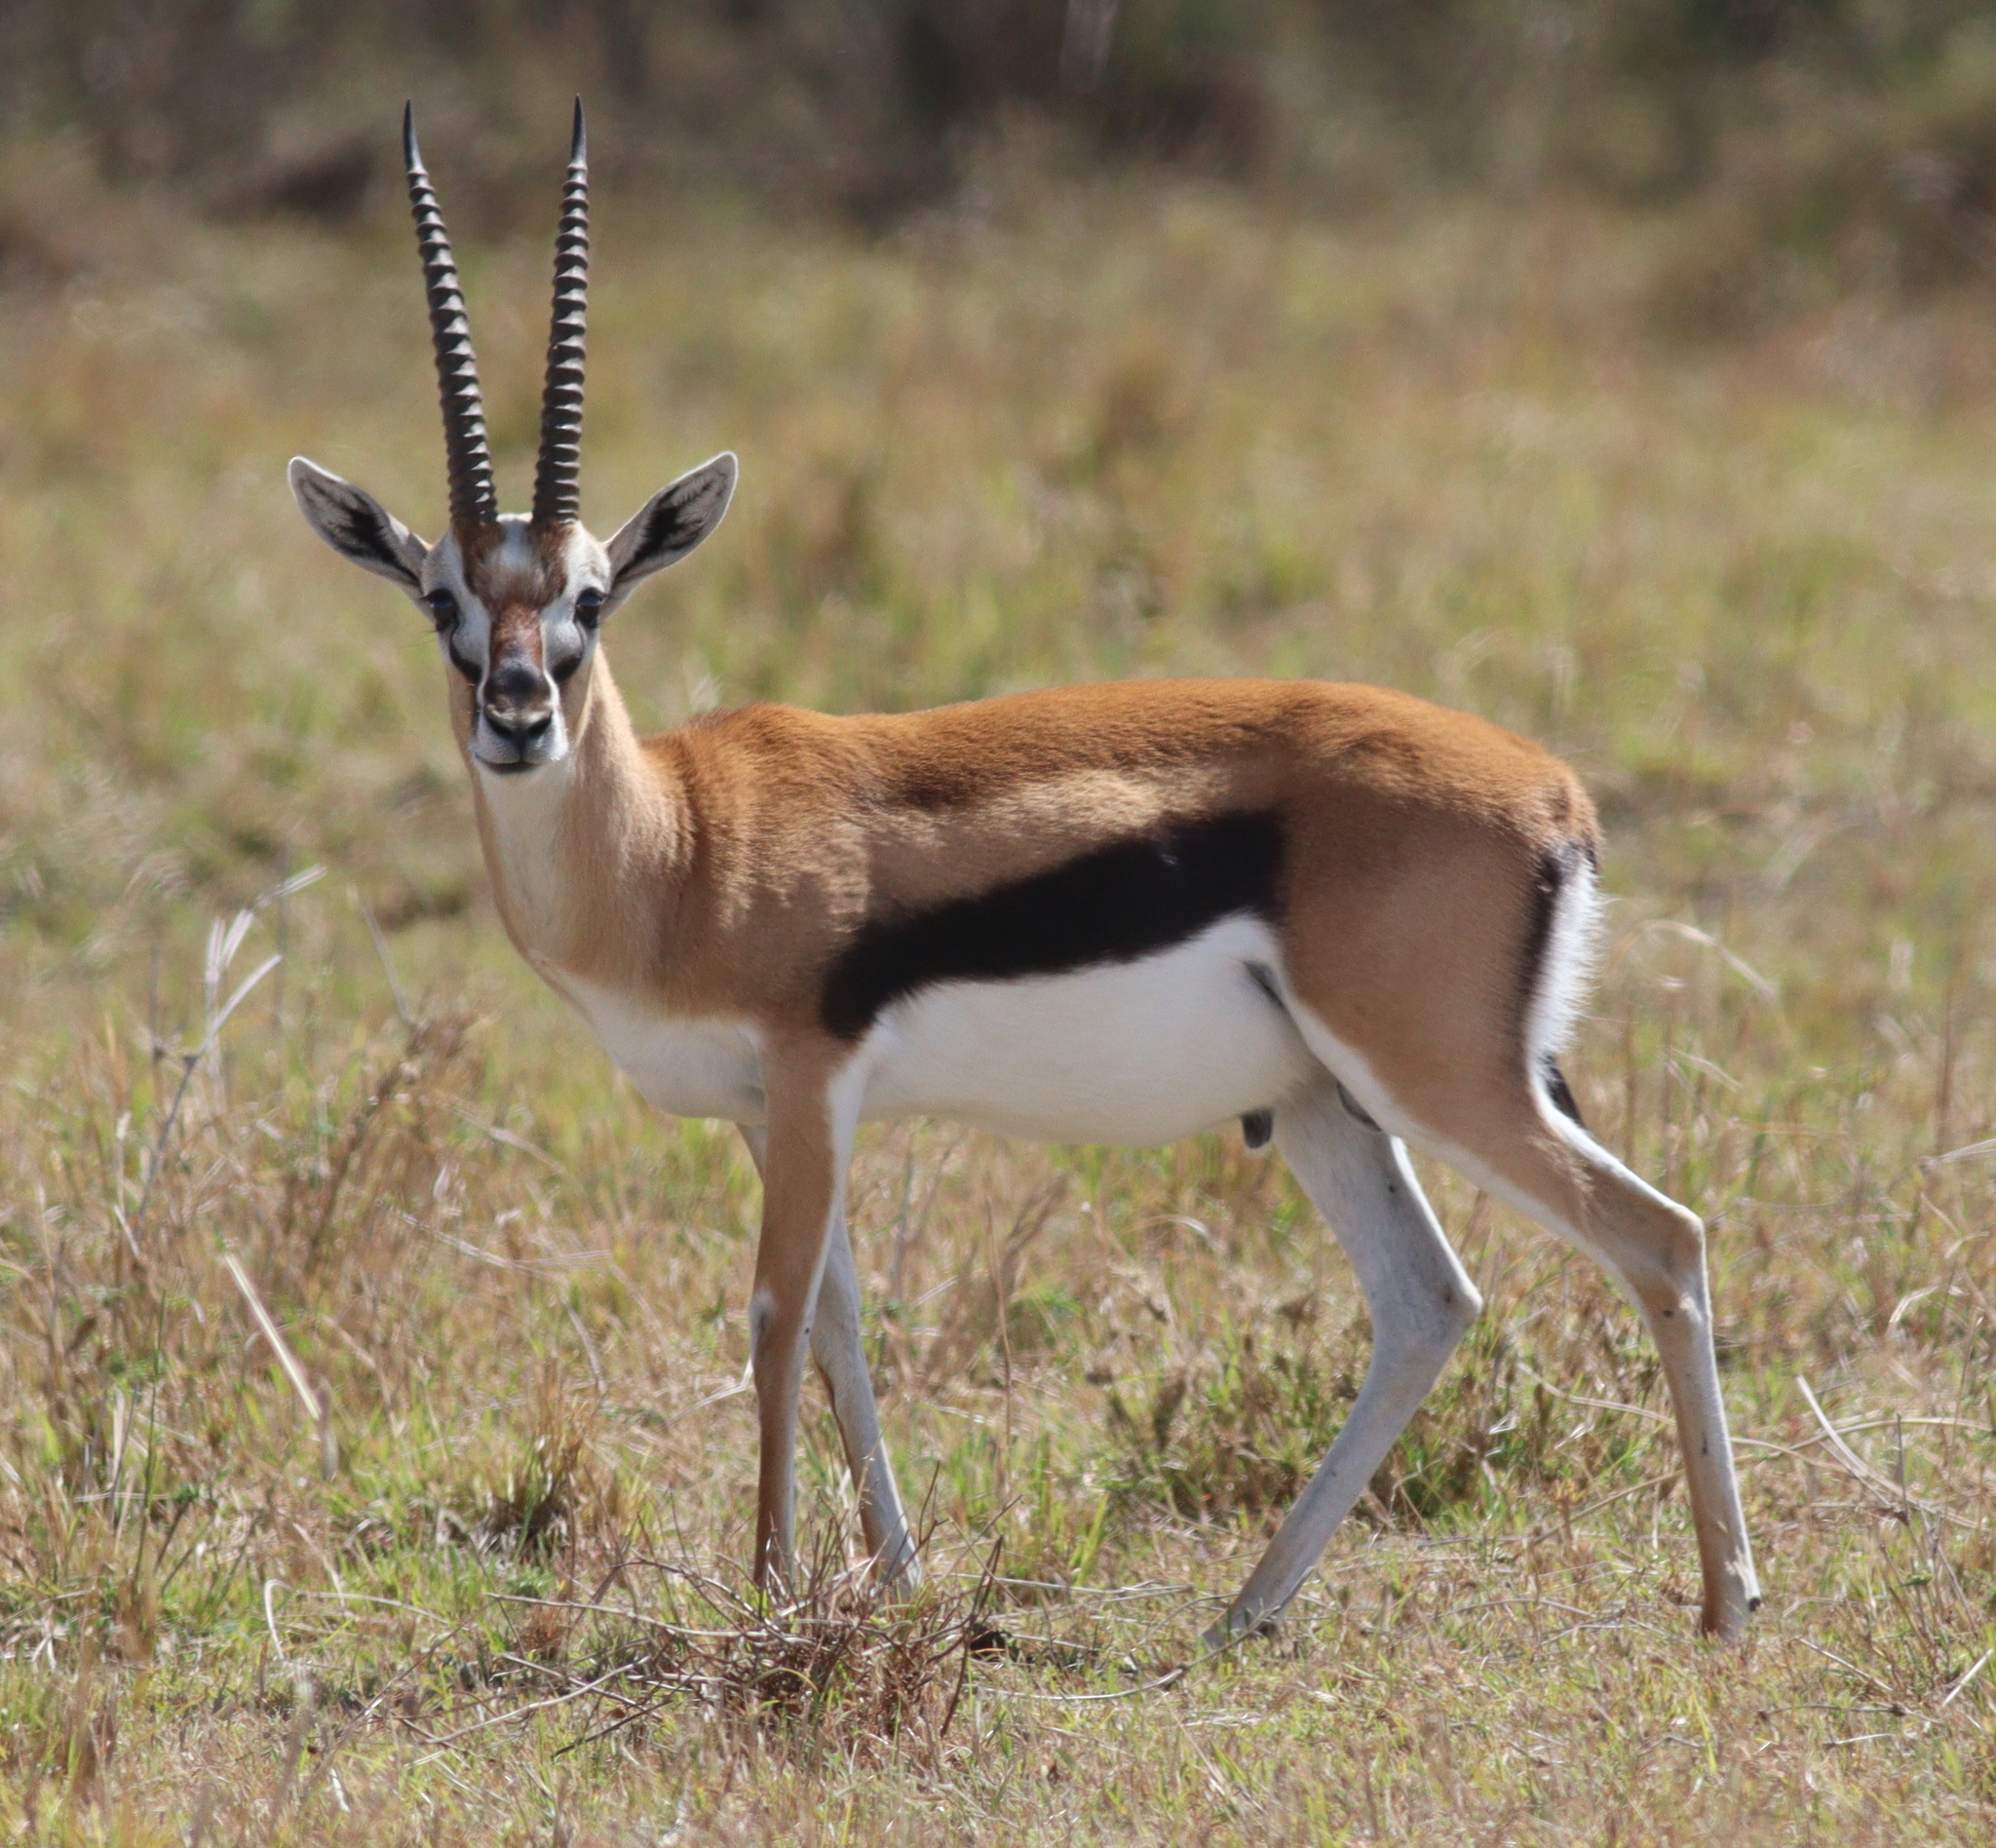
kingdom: Animalia
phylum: Chordata
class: Mammalia
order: Artiodactyla
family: Bovidae
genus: Eudorcas
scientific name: Eudorcas thomsonii
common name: Thomson's gazelle
